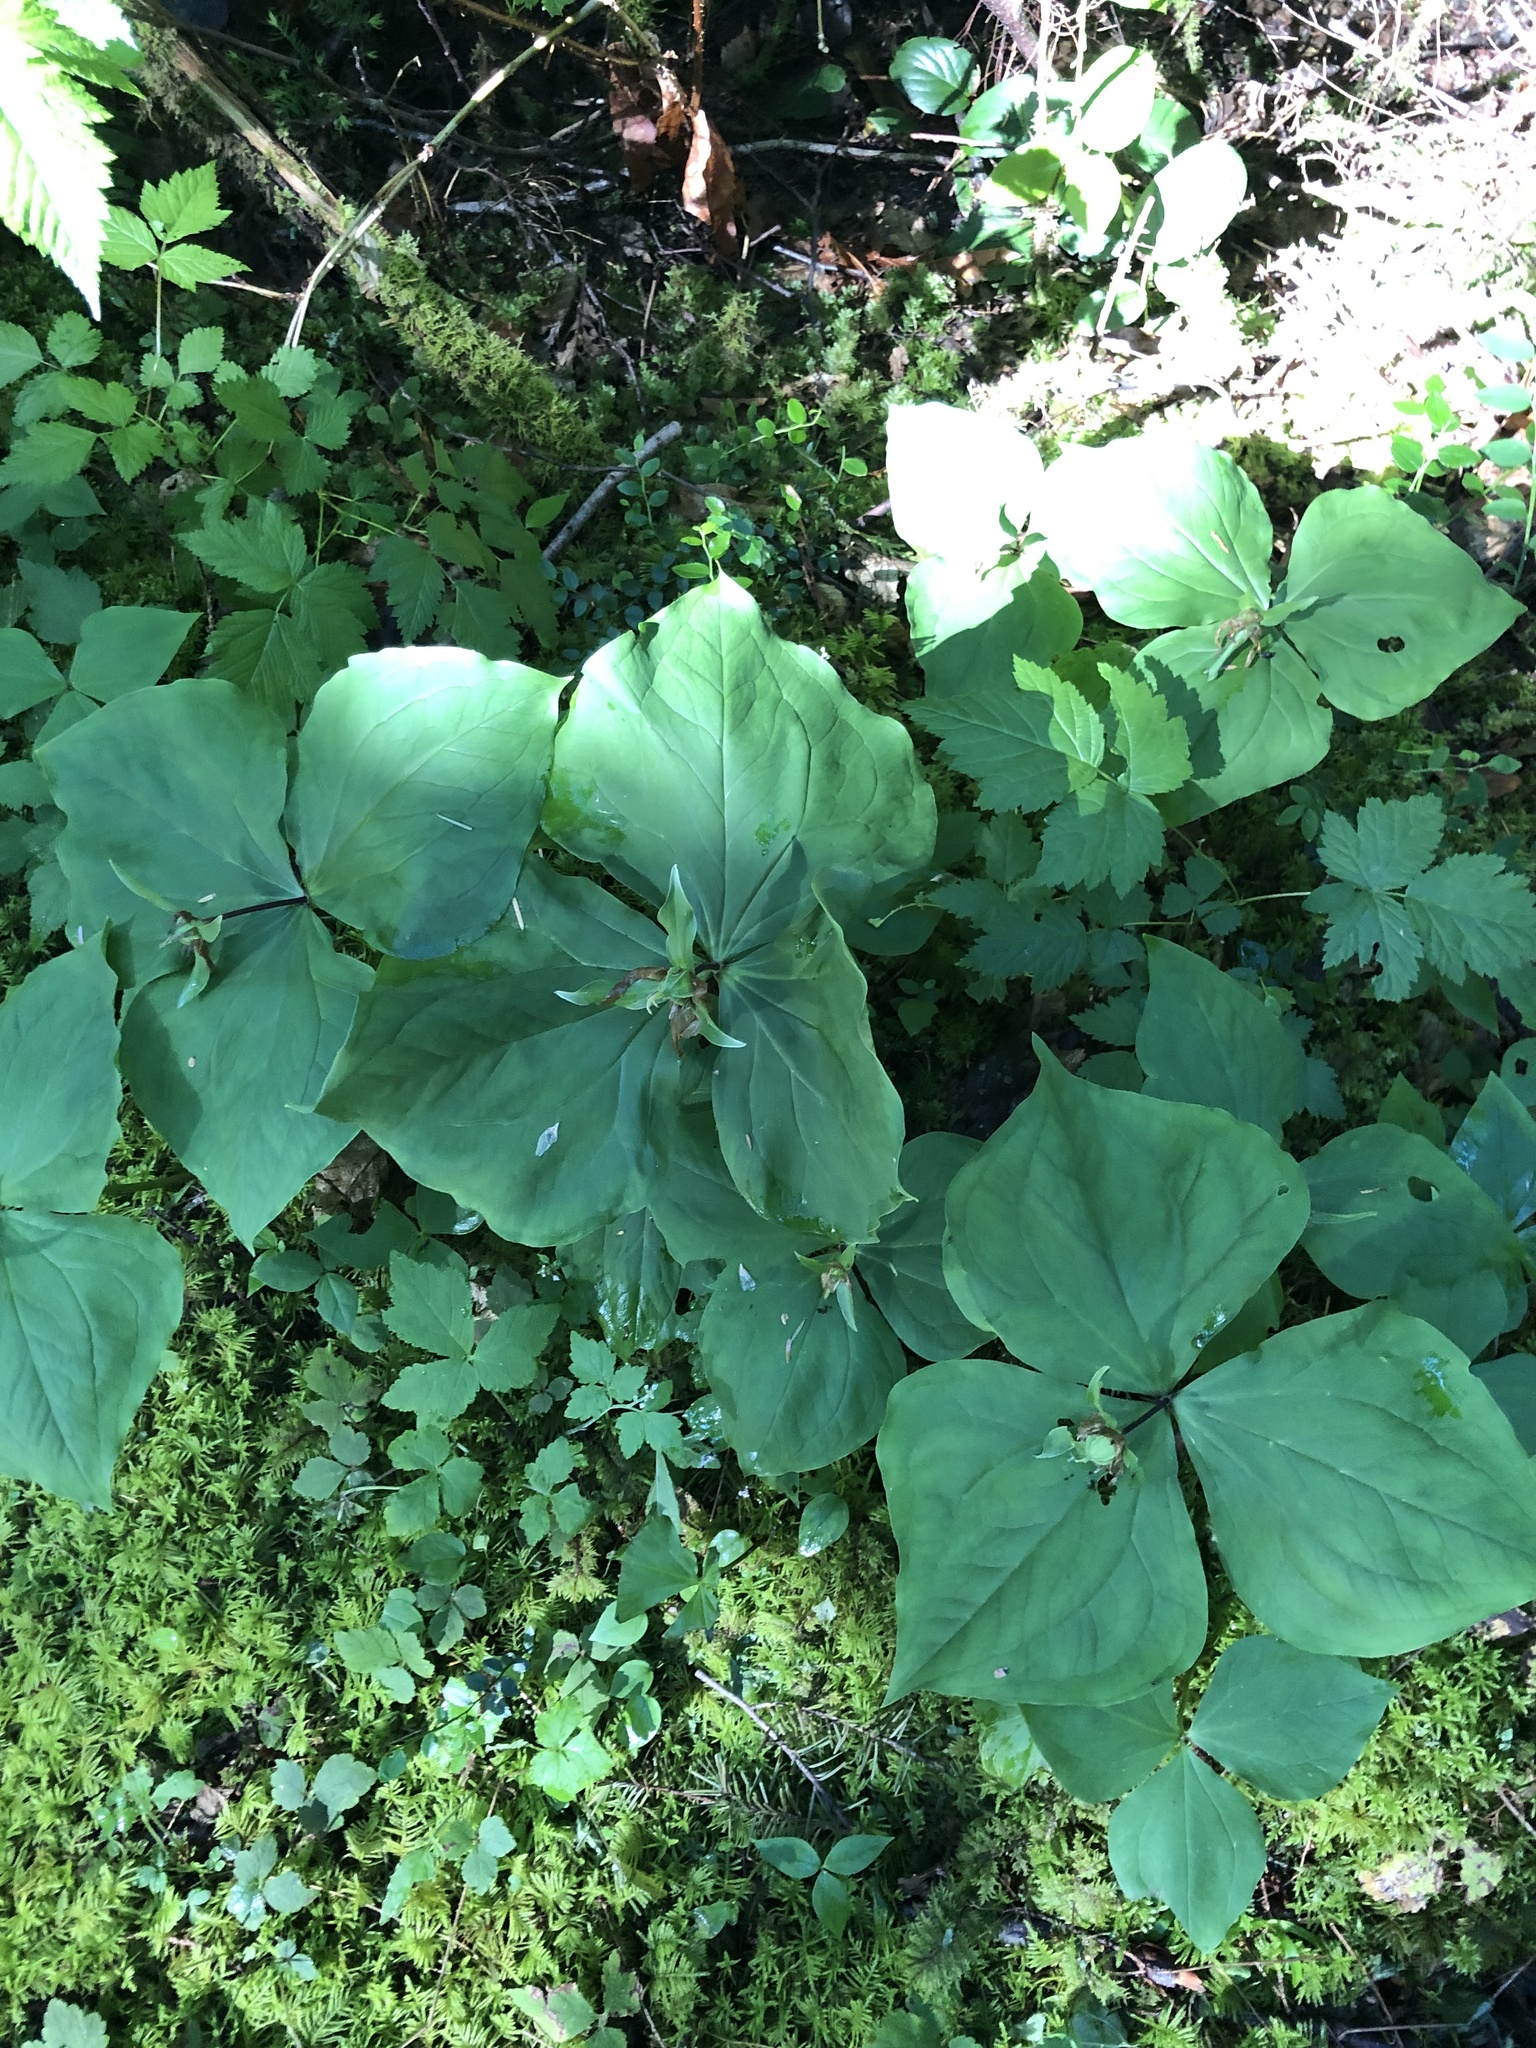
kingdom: Plantae
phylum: Tracheophyta
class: Liliopsida
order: Liliales
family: Melanthiaceae
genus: Trillium
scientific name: Trillium ovatum
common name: Pacific trillium
